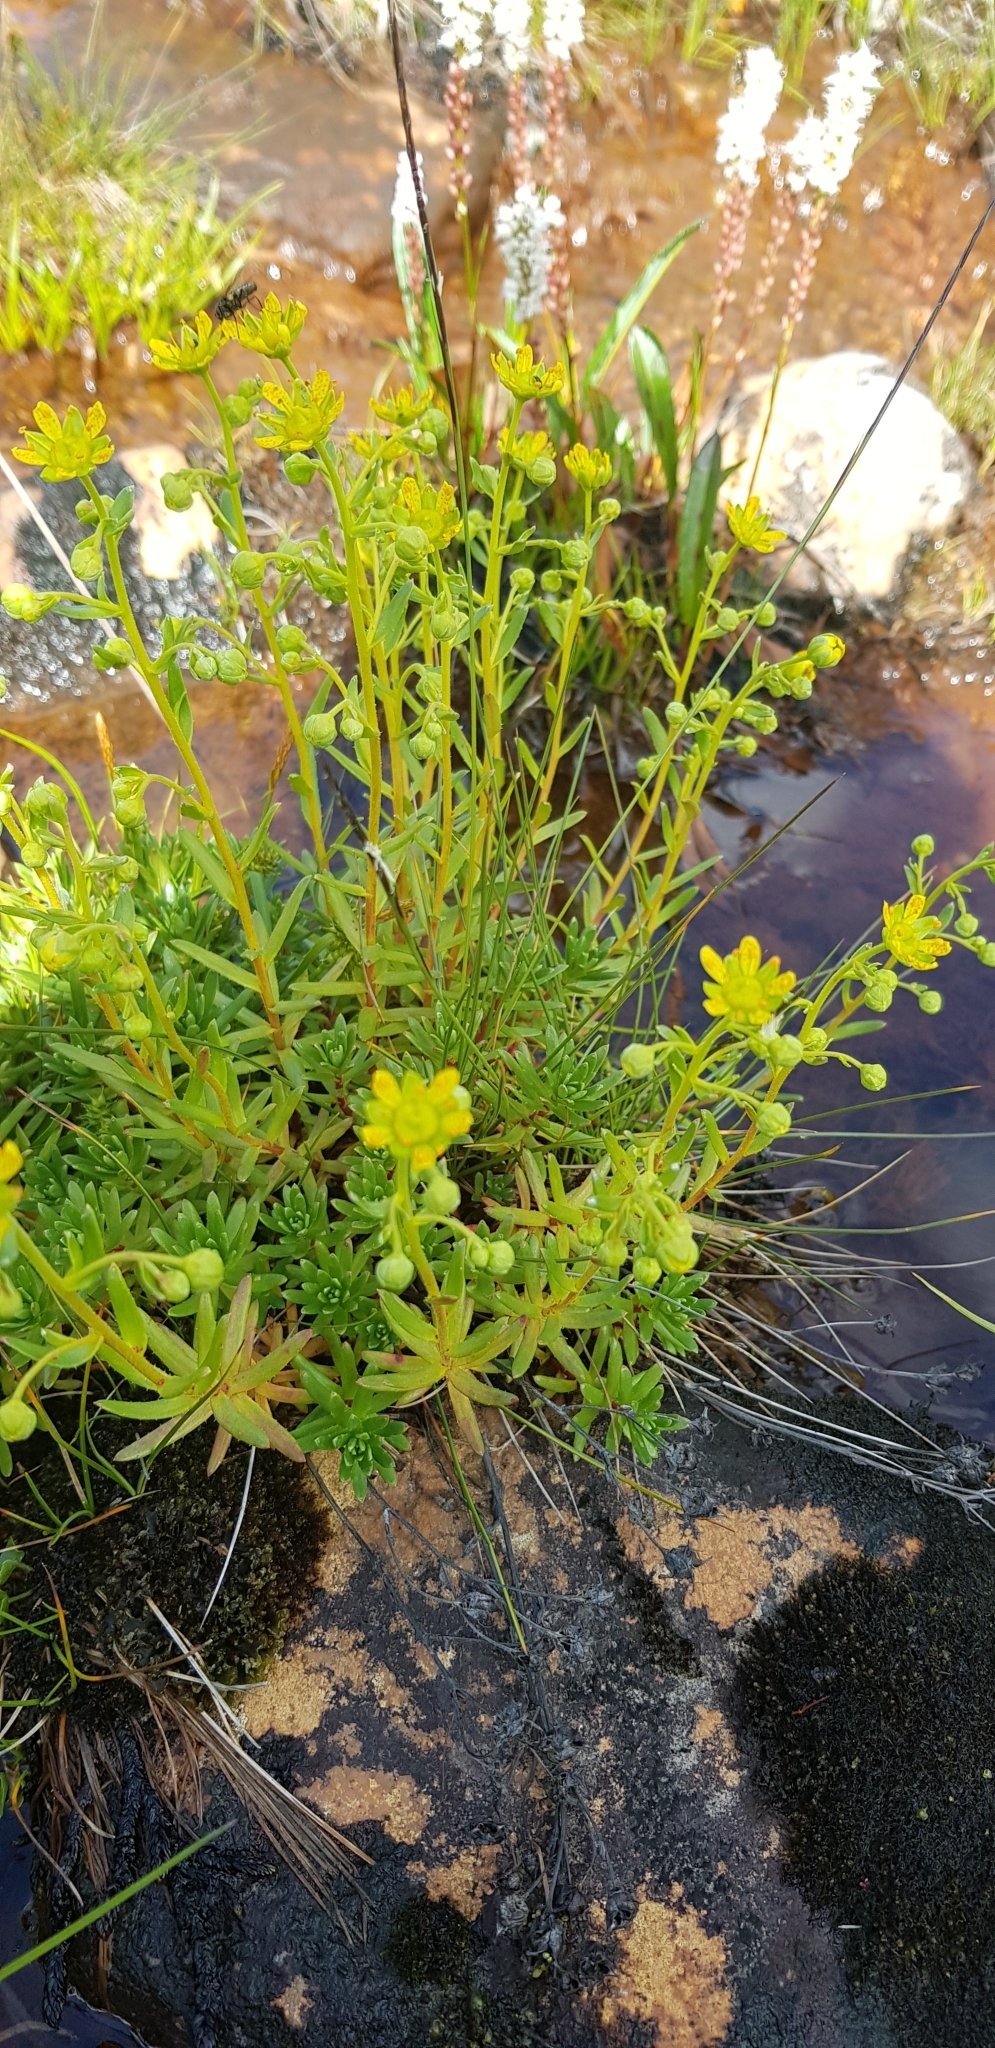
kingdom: Plantae
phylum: Tracheophyta
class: Magnoliopsida
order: Saxifragales
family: Saxifragaceae
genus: Saxifraga
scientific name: Saxifraga aizoides
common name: Yellow mountain saxifrage
